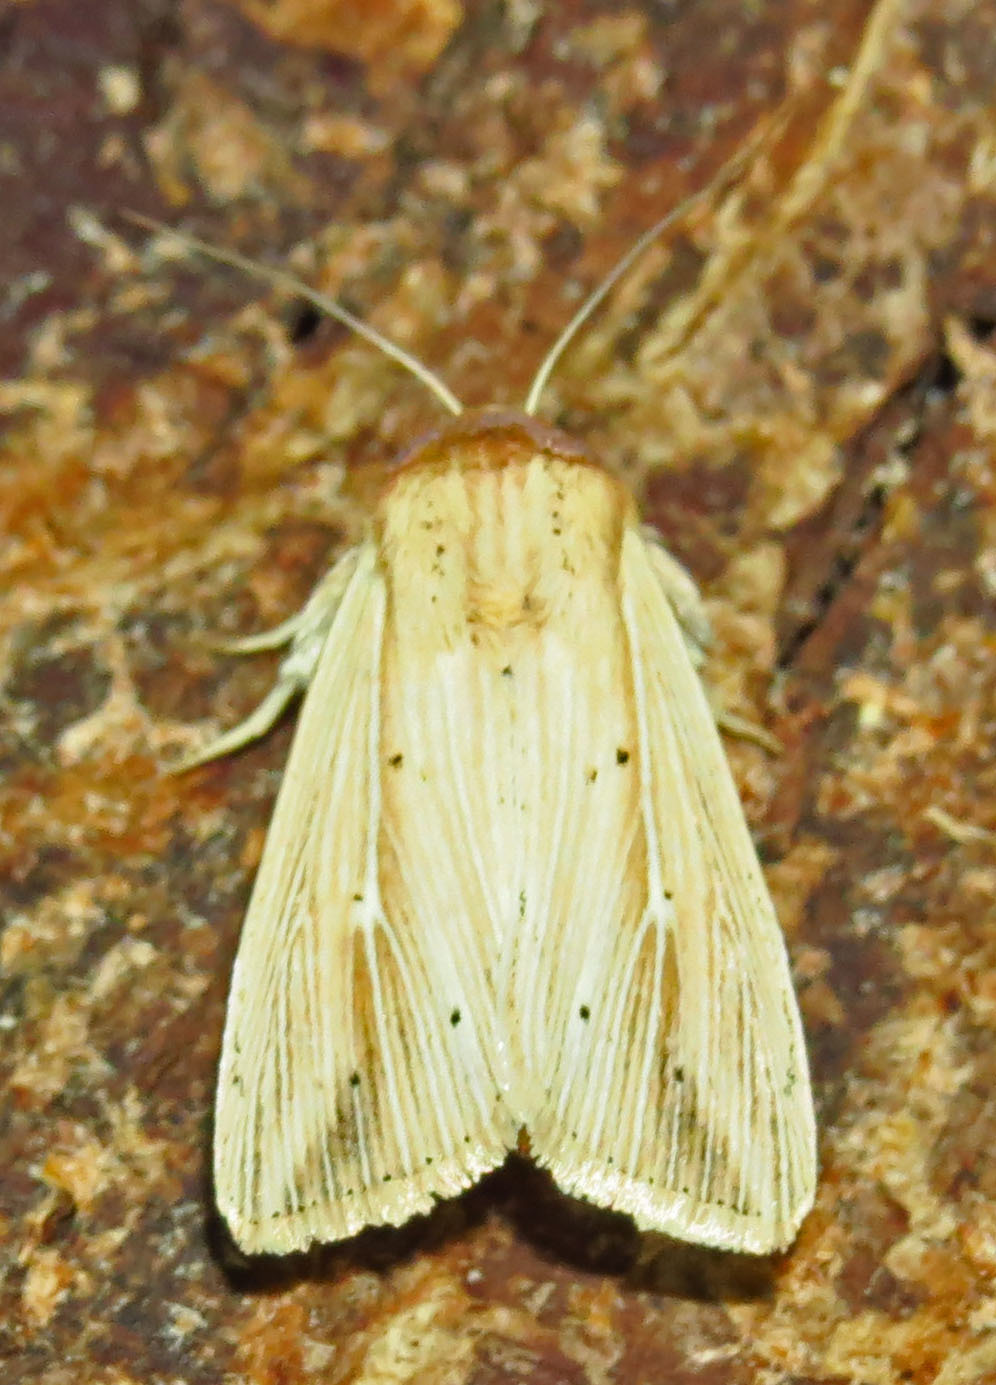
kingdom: Animalia
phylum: Arthropoda
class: Insecta
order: Lepidoptera
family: Noctuidae
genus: Leucania
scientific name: Leucania adjuta
